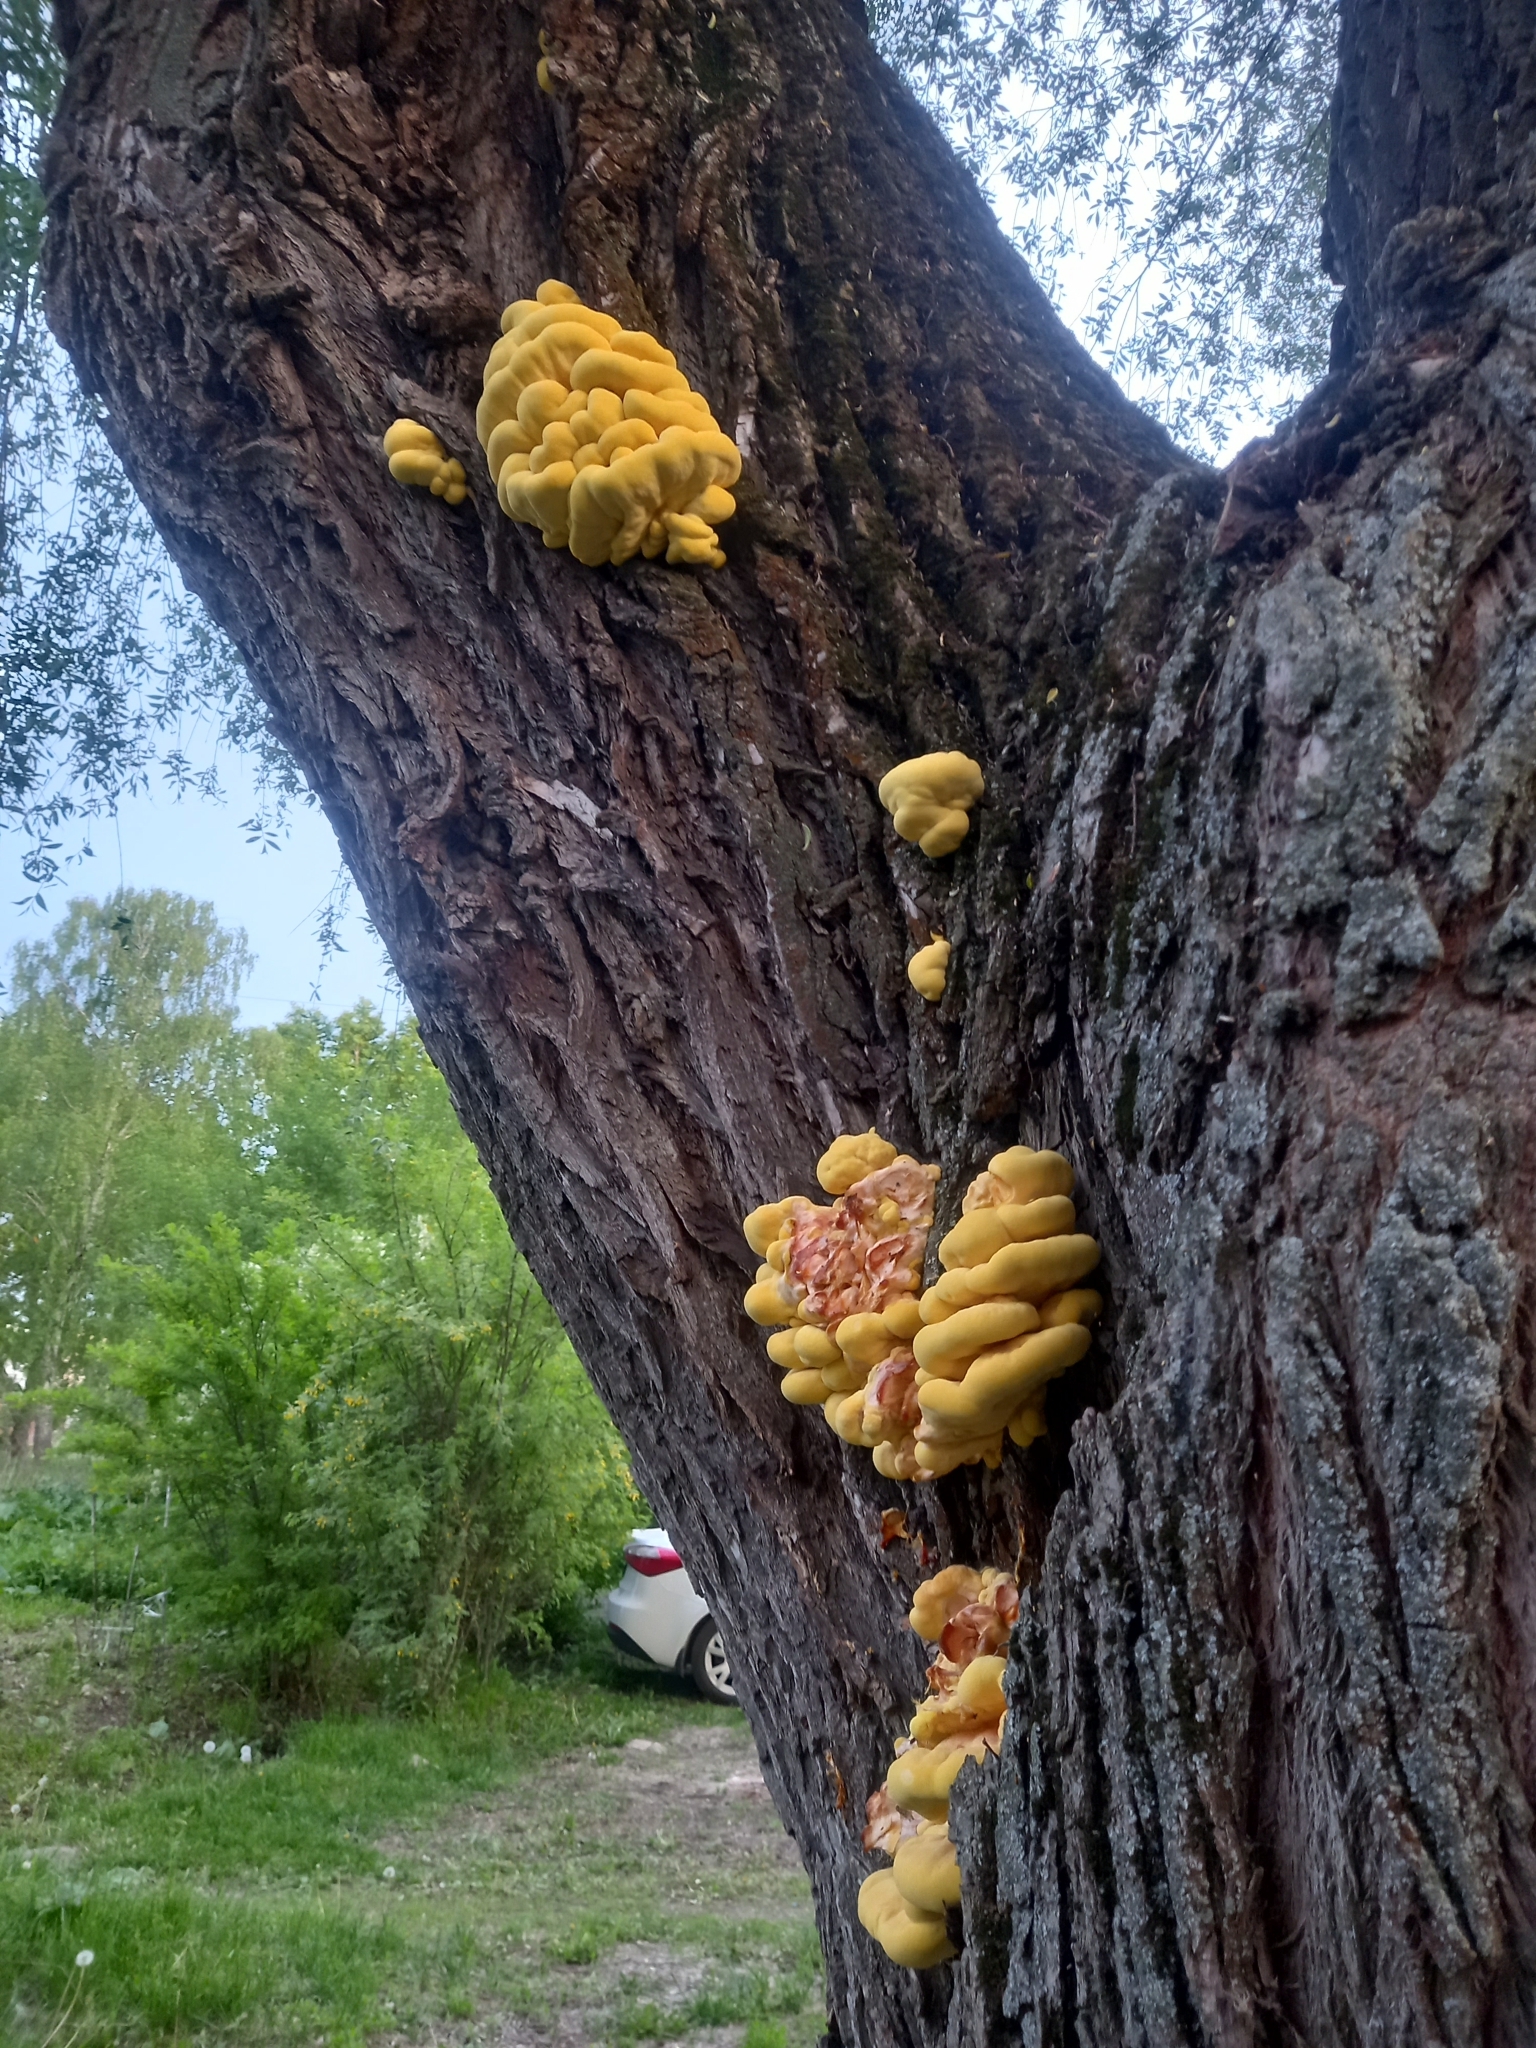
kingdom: Fungi
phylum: Basidiomycota
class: Agaricomycetes
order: Polyporales
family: Laetiporaceae
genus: Laetiporus
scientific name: Laetiporus sulphureus
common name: Chicken of the woods
